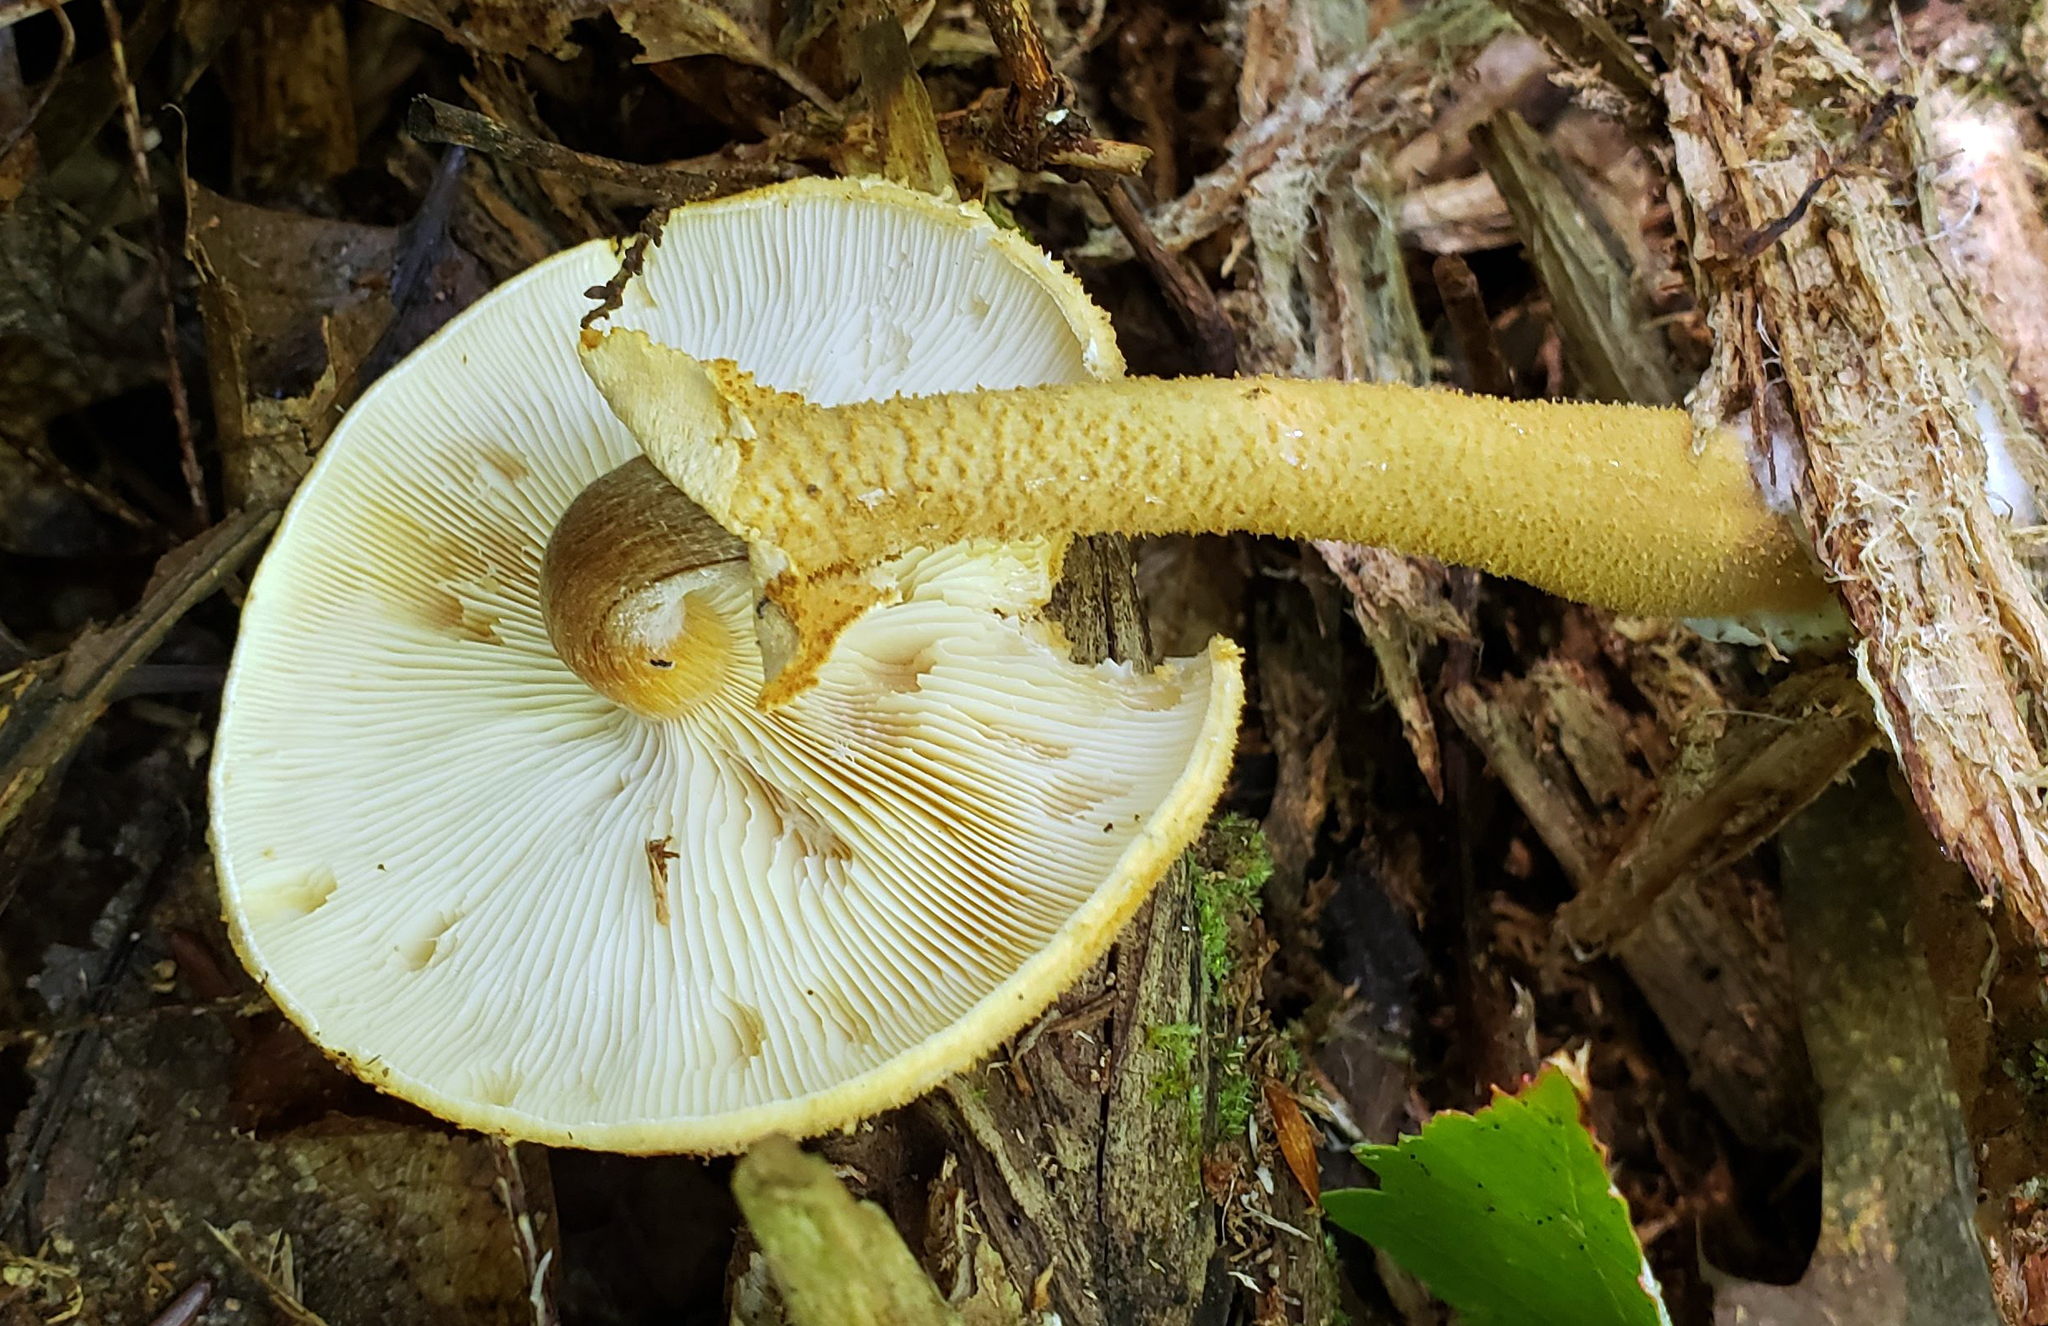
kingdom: Fungi
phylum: Basidiomycota
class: Agaricomycetes
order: Agaricales
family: Tricholomataceae
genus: Cystoderma
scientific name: Cystoderma amianthinum
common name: Earthy powdercap
